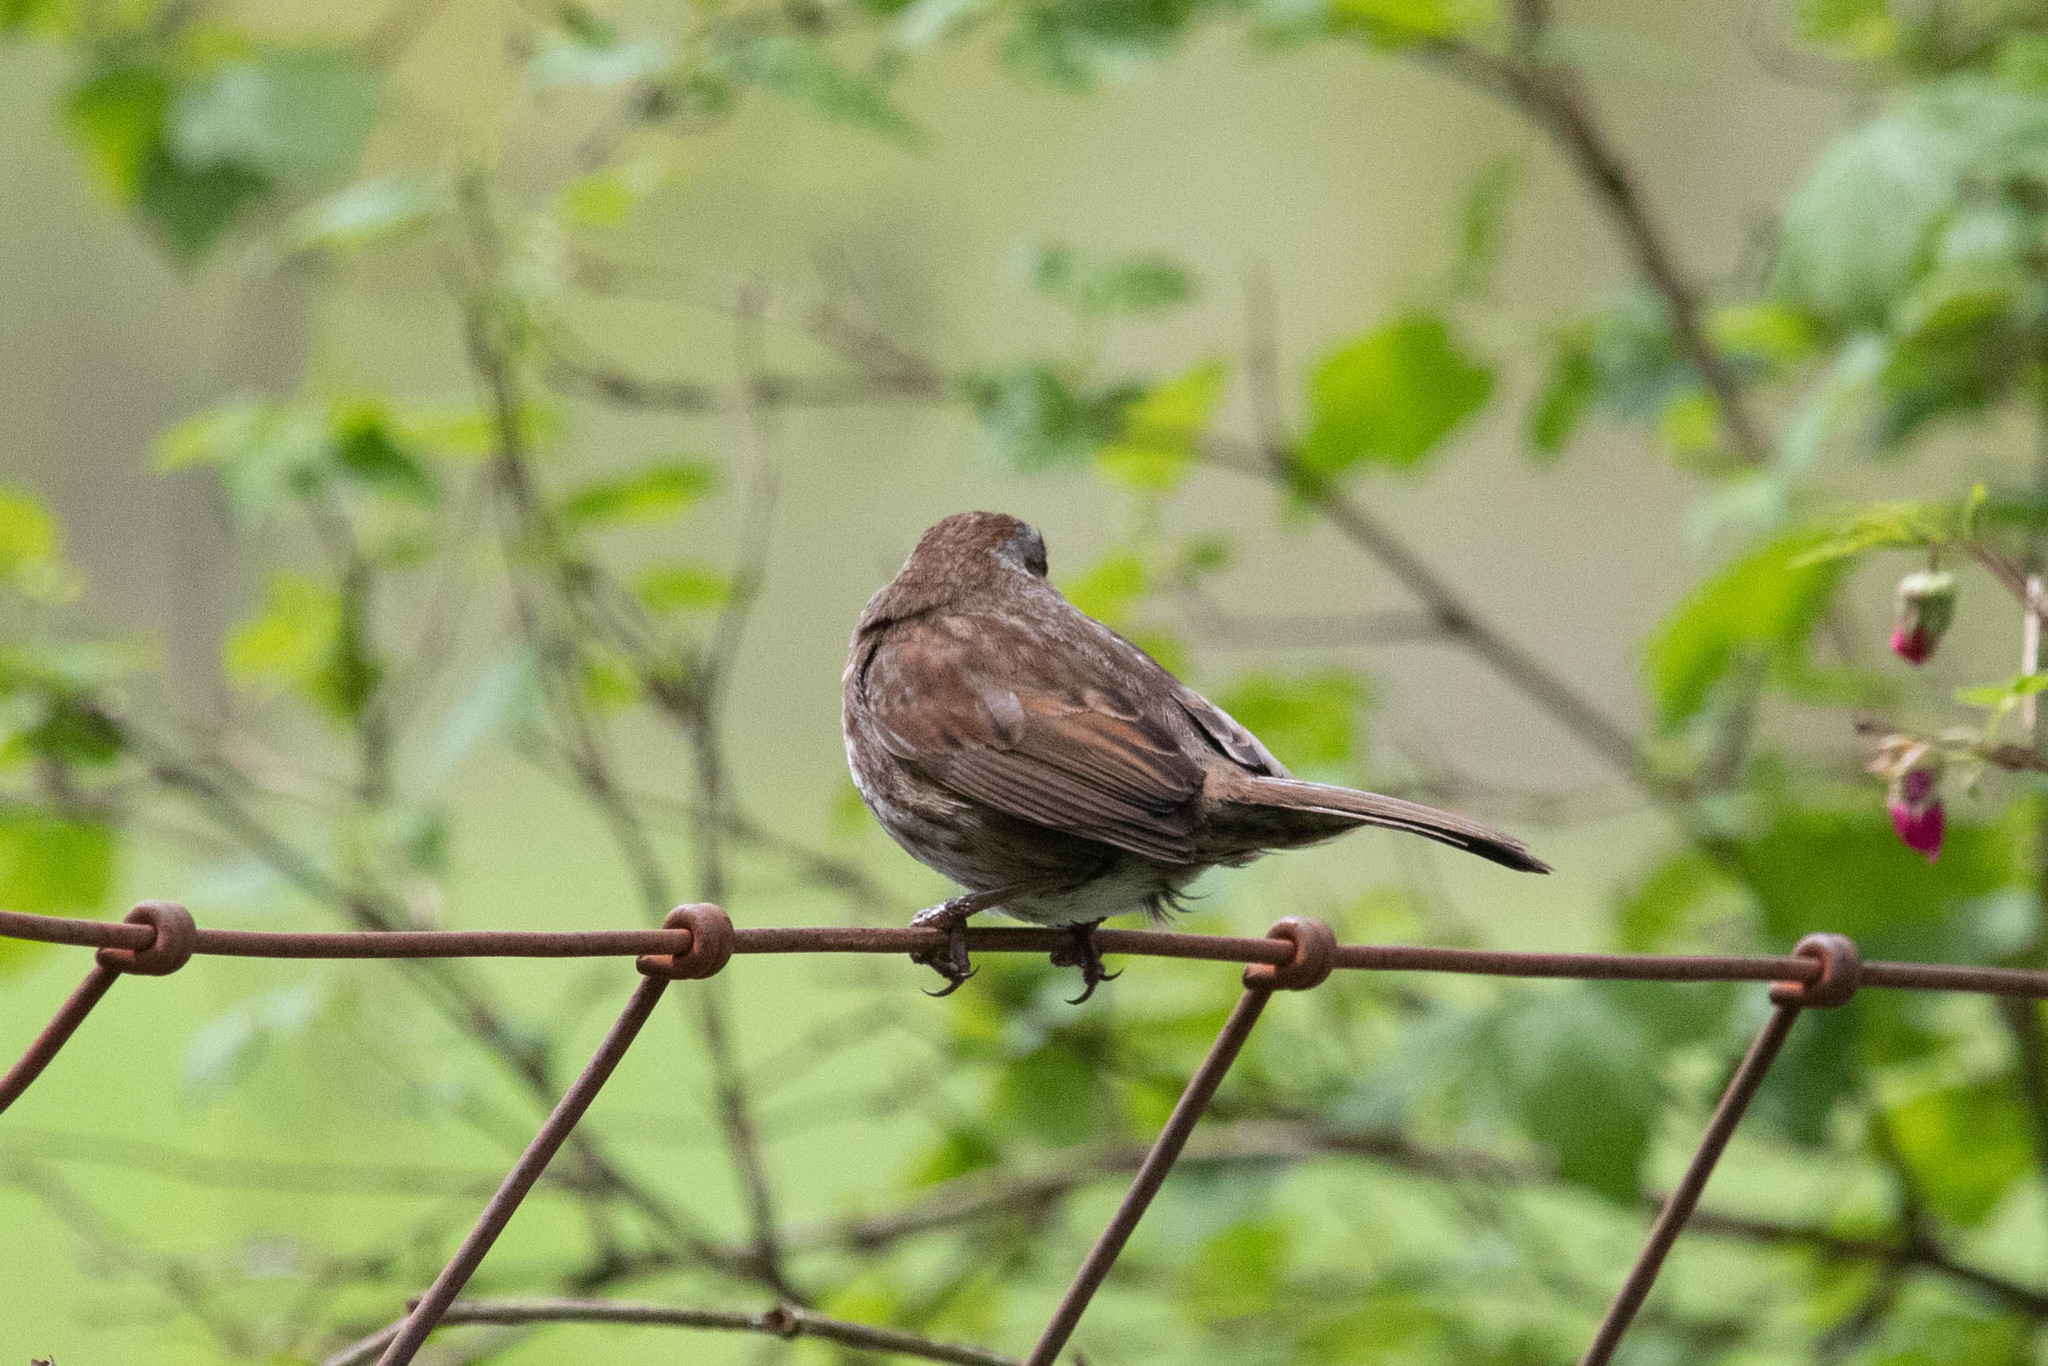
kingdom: Animalia
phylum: Chordata
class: Aves
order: Passeriformes
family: Passerellidae
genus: Melospiza
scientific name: Melospiza melodia
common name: Song sparrow
